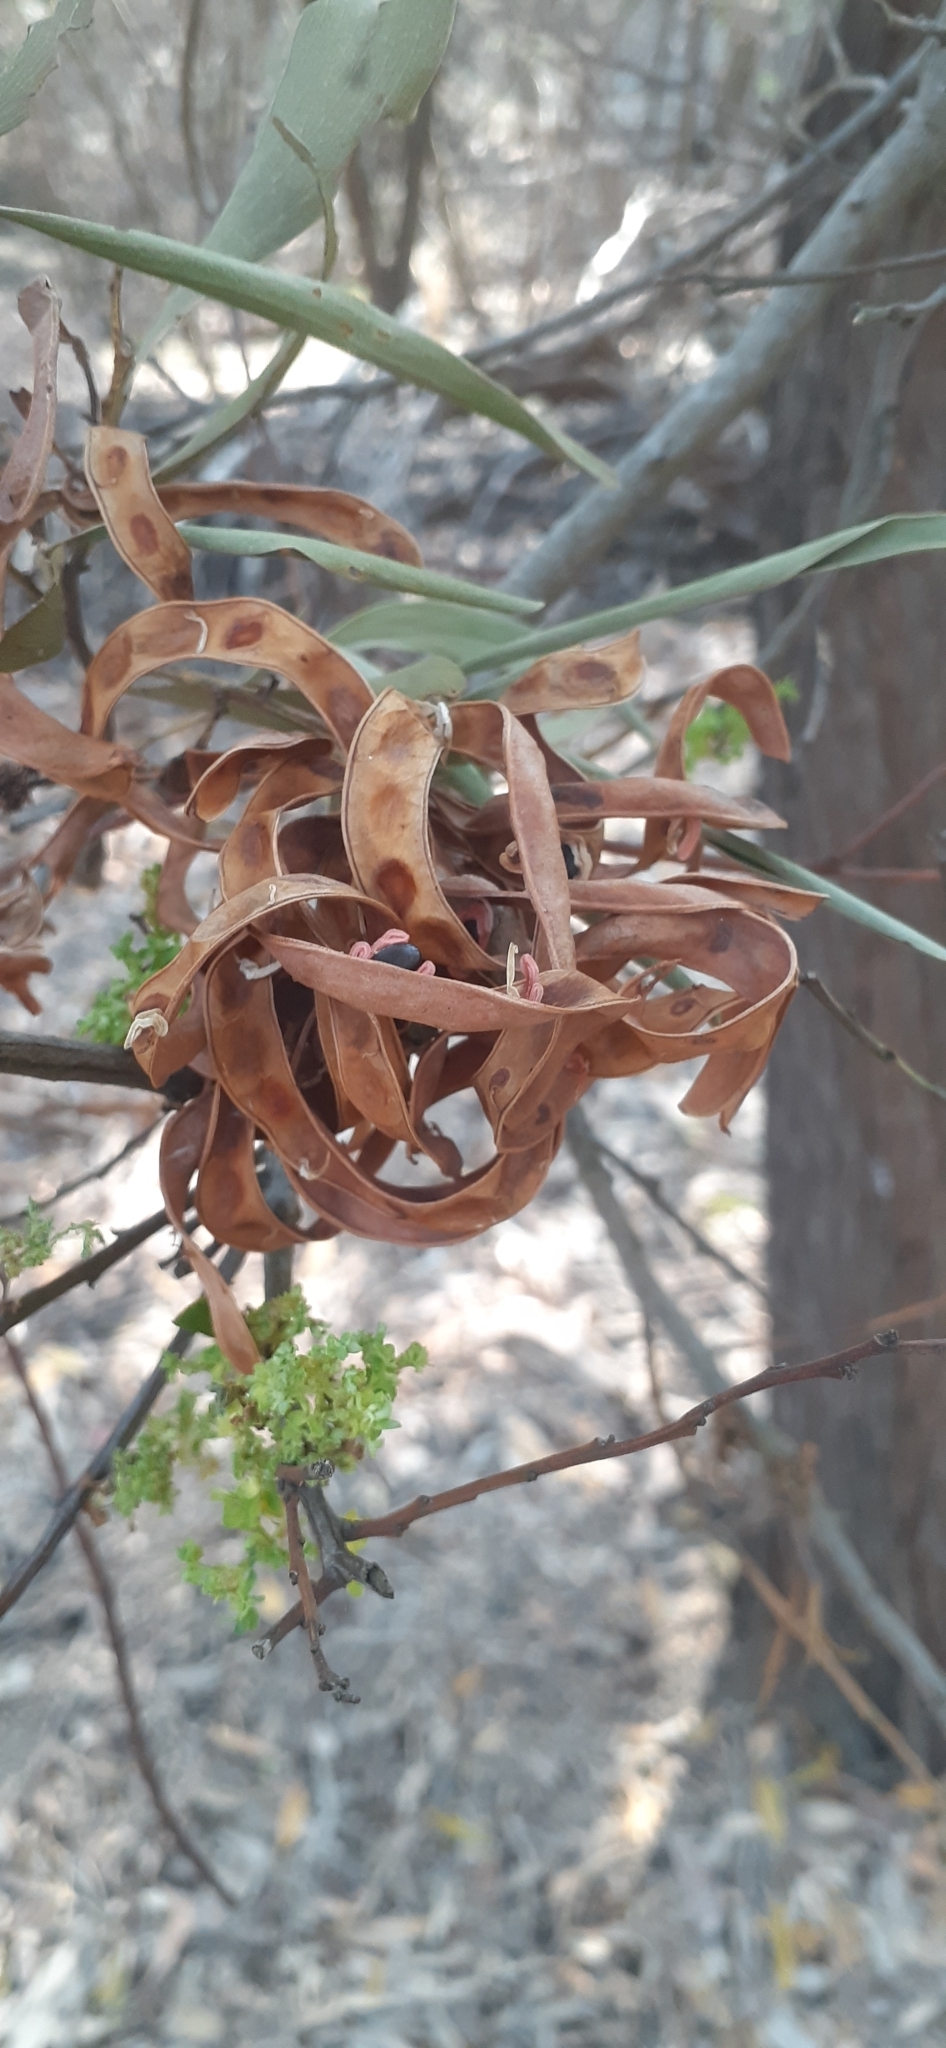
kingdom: Plantae
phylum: Tracheophyta
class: Magnoliopsida
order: Fabales
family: Fabaceae
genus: Acacia
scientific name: Acacia melanoxylon
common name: Blackwood
